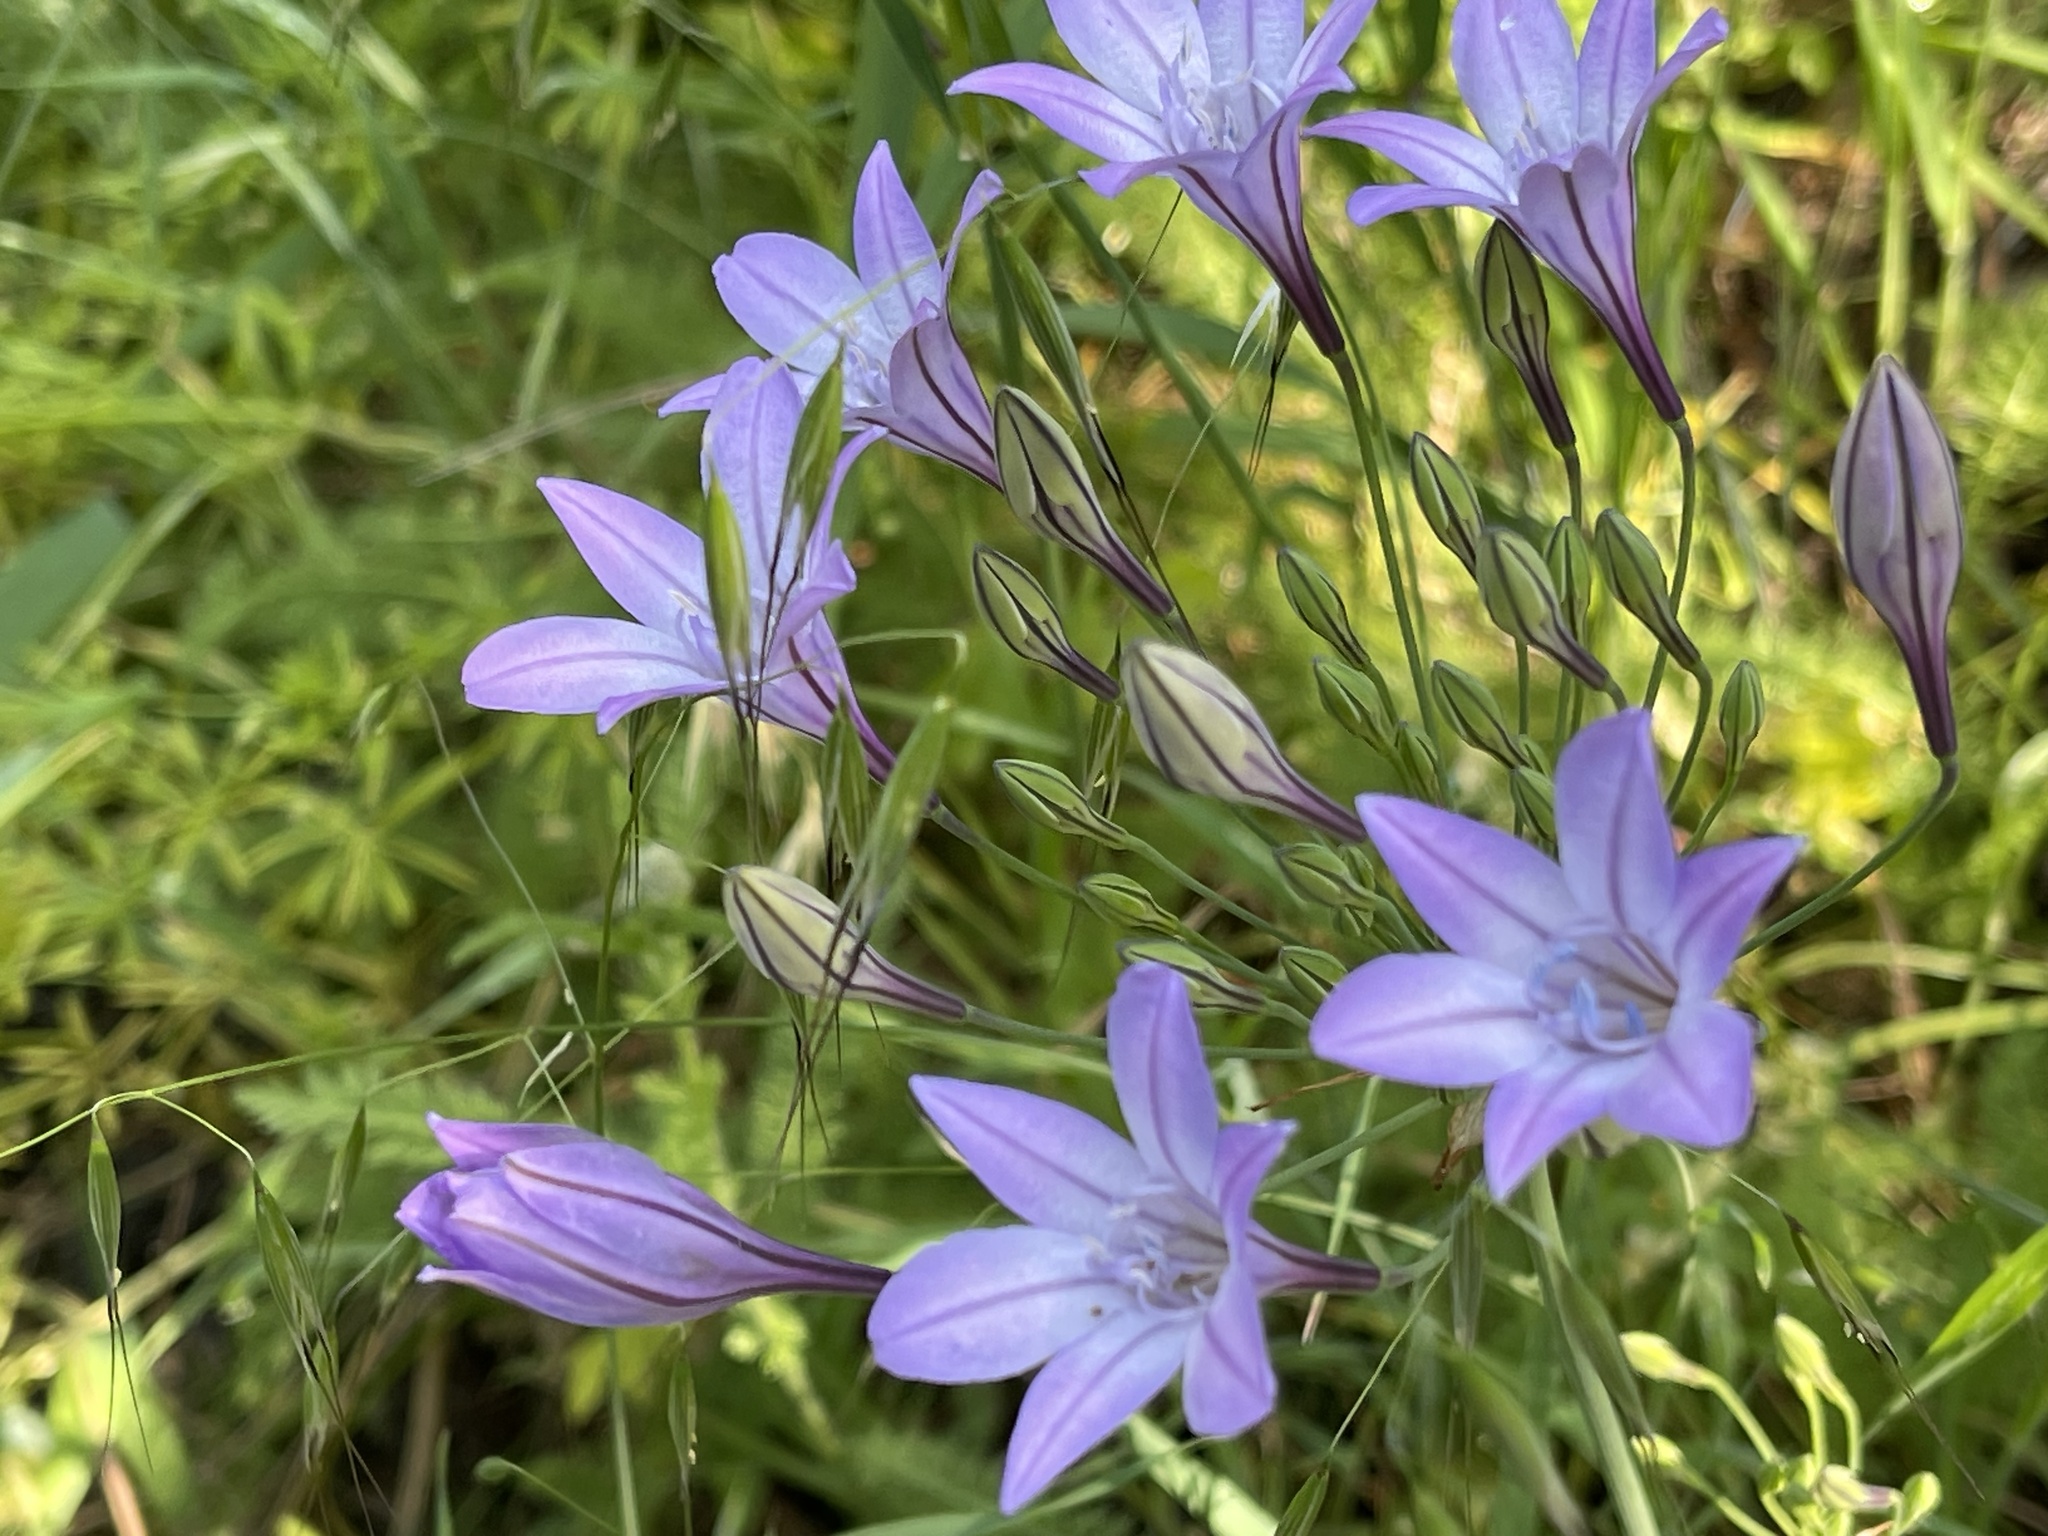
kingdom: Plantae
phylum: Tracheophyta
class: Liliopsida
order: Asparagales
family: Asparagaceae
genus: Triteleia
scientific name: Triteleia laxa
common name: Triplet-lily
